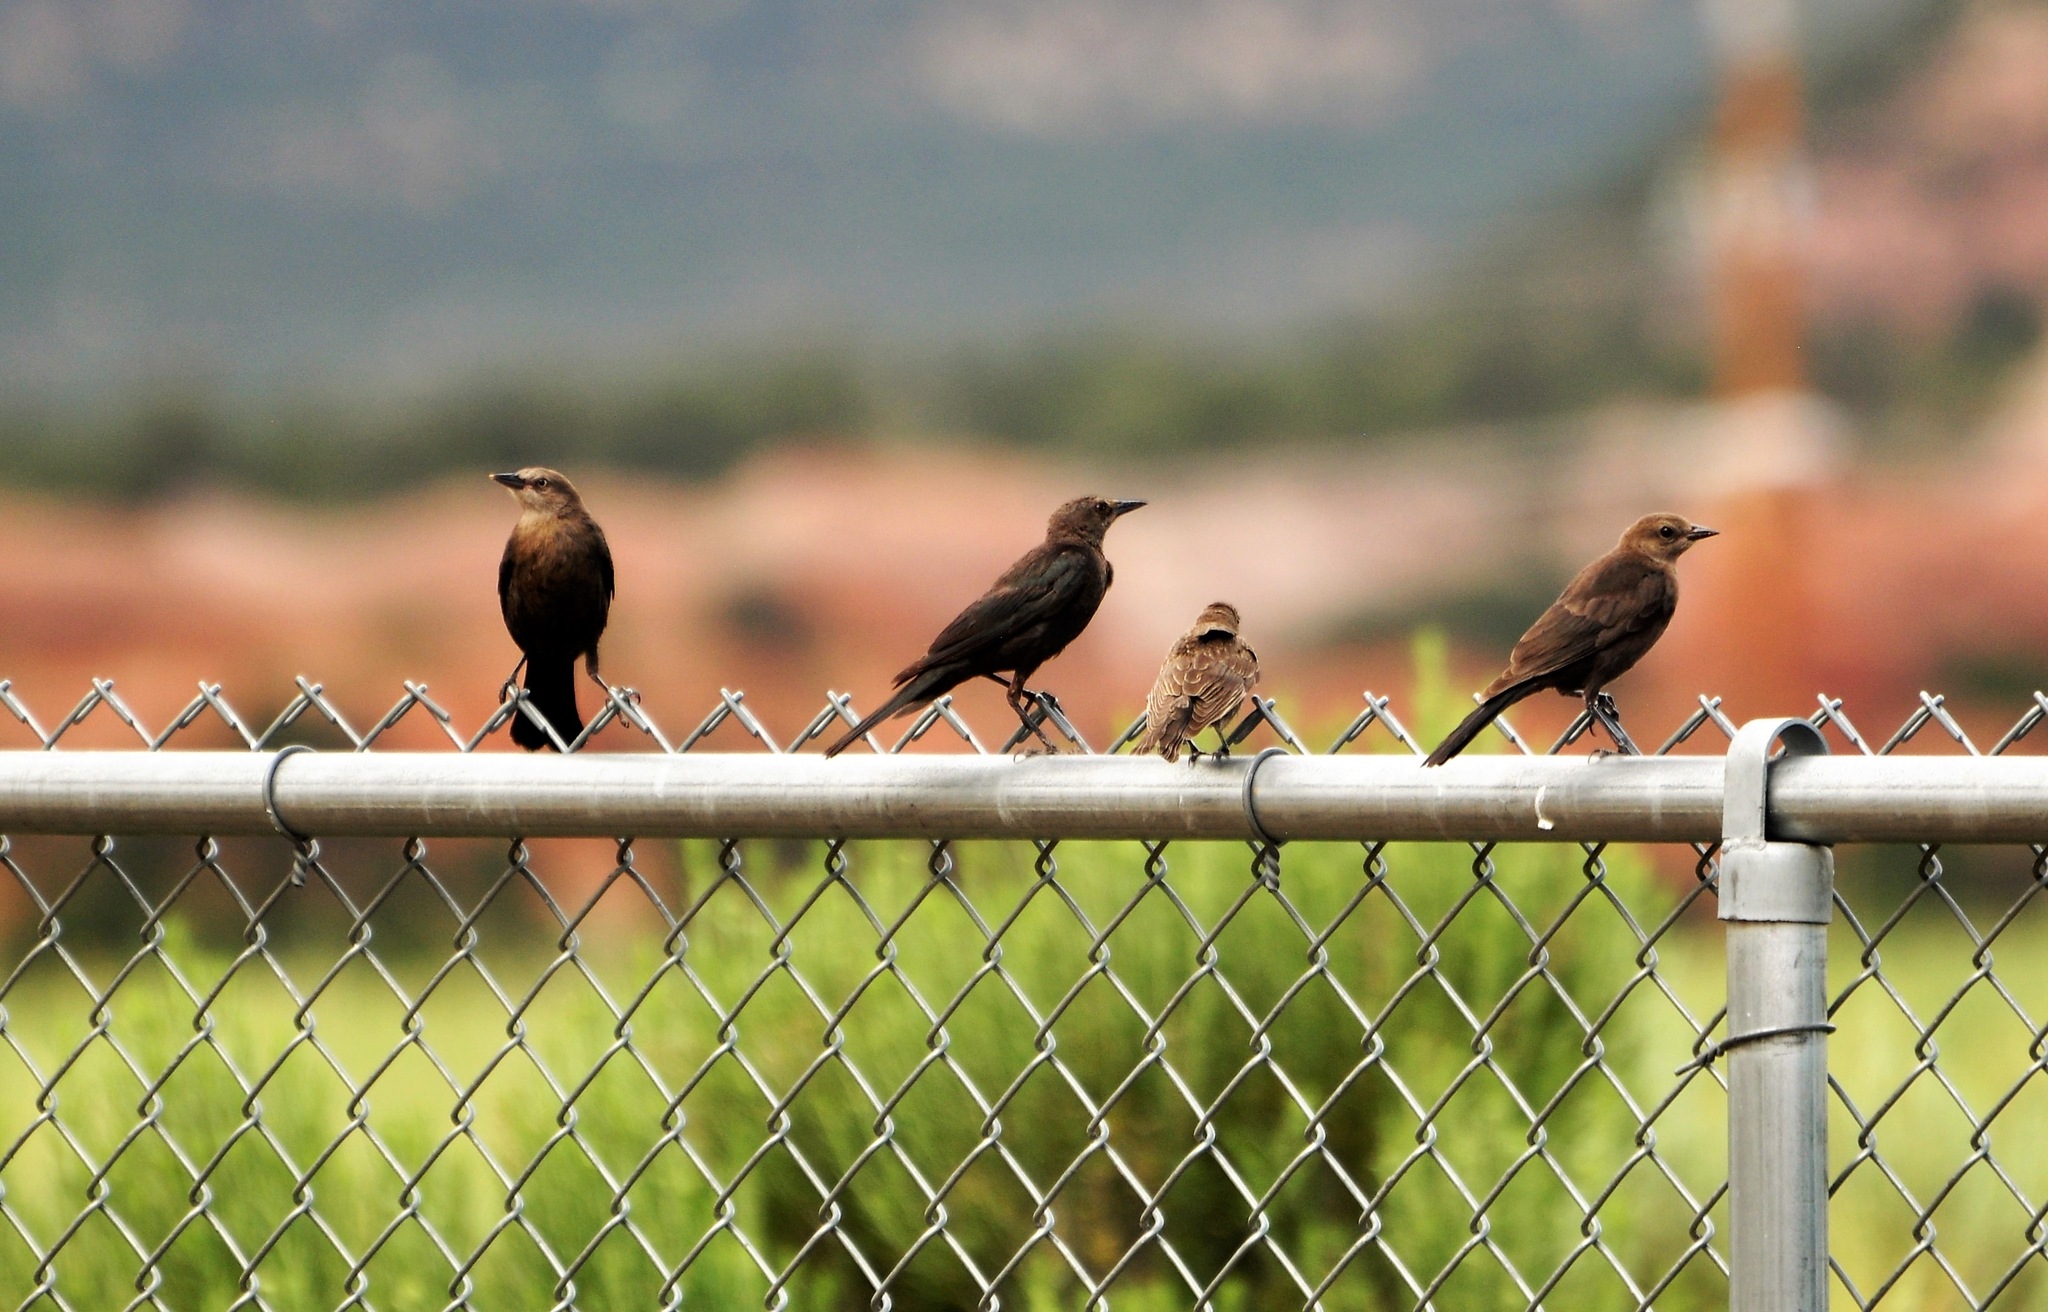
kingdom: Animalia
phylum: Chordata
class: Aves
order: Passeriformes
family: Icteridae
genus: Euphagus
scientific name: Euphagus cyanocephalus
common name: Brewer's blackbird
